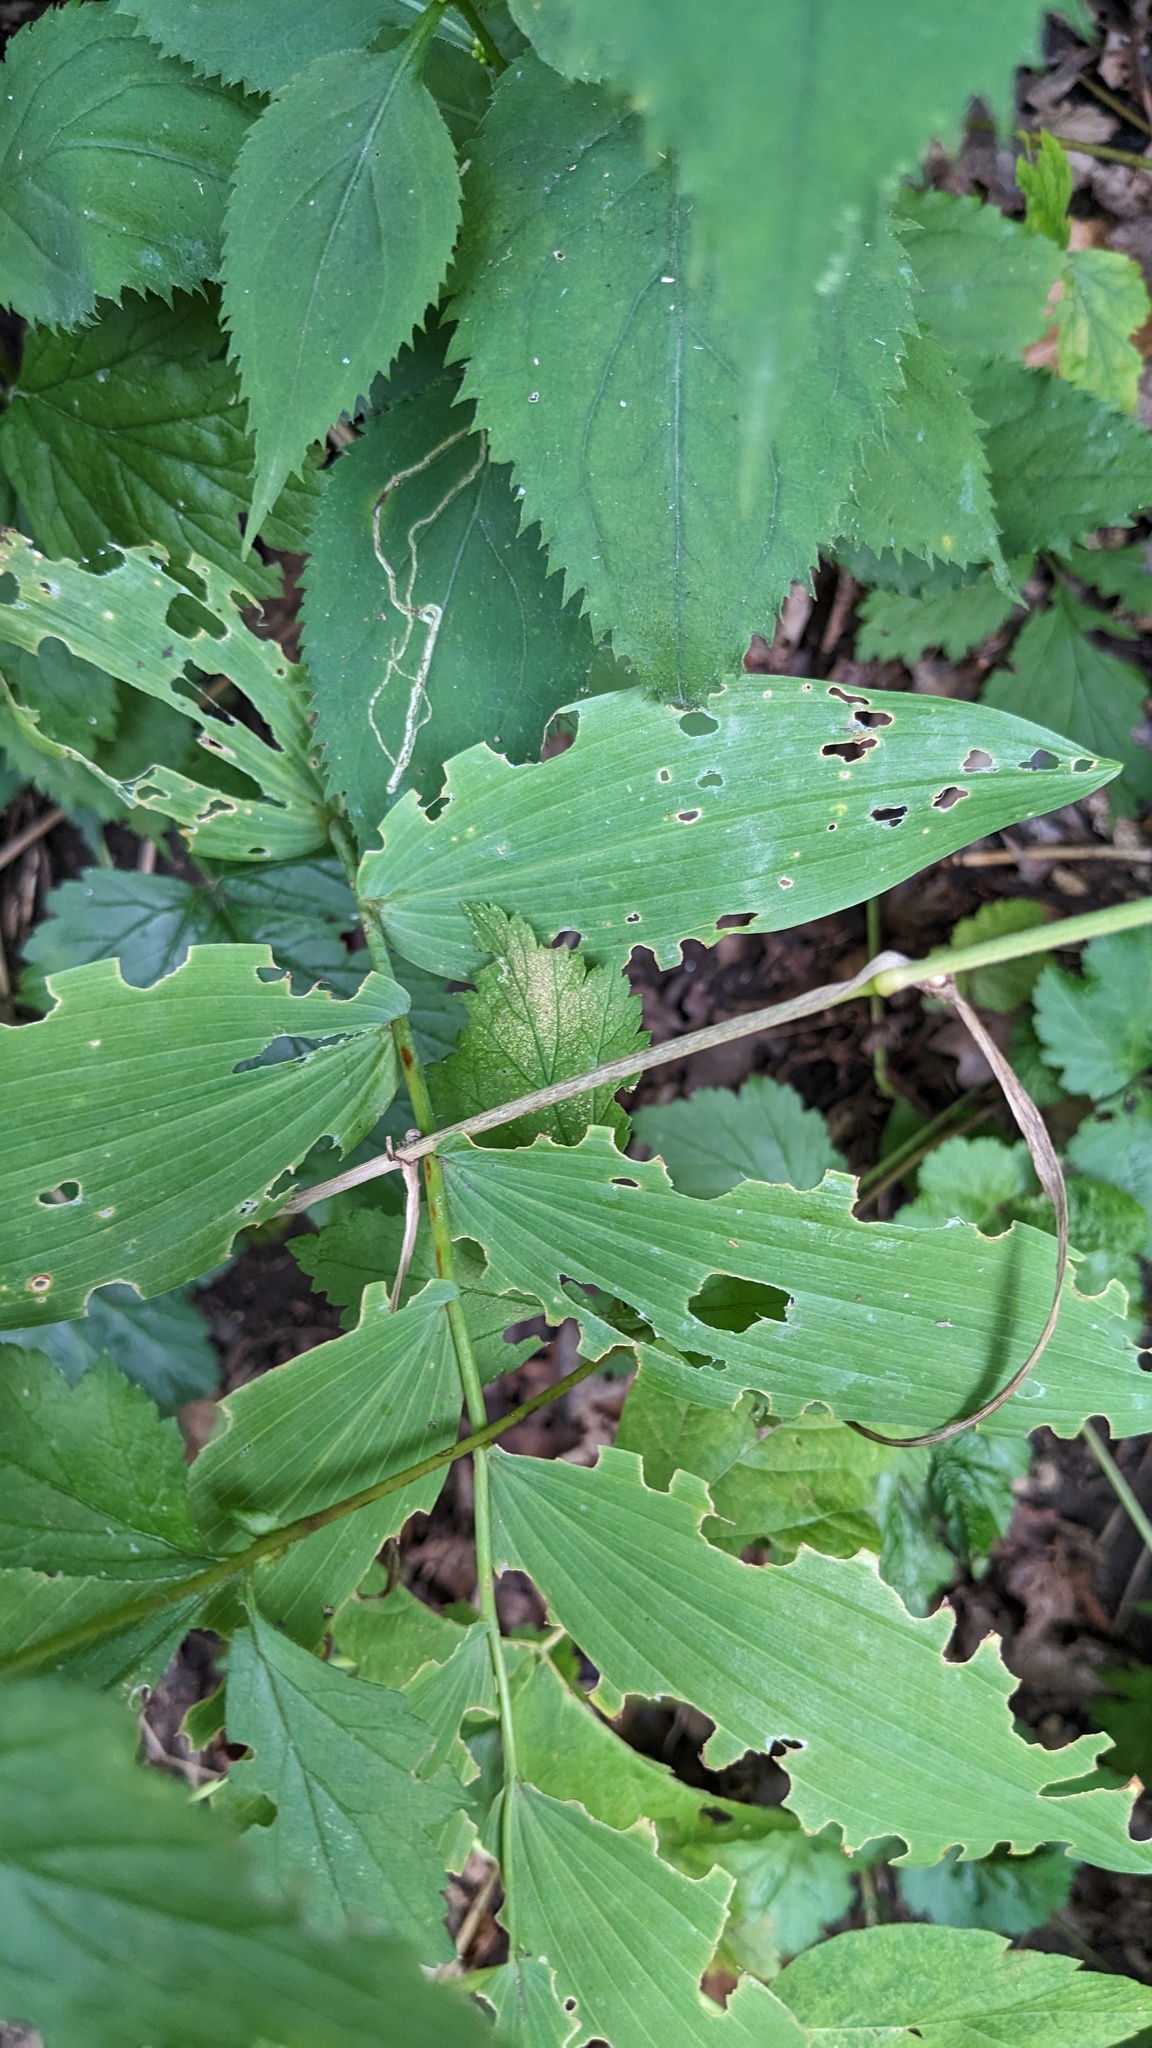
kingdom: Plantae
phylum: Tracheophyta
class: Liliopsida
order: Asparagales
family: Asparagaceae
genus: Polygonatum
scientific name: Polygonatum biflorum
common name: American solomon's-seal
